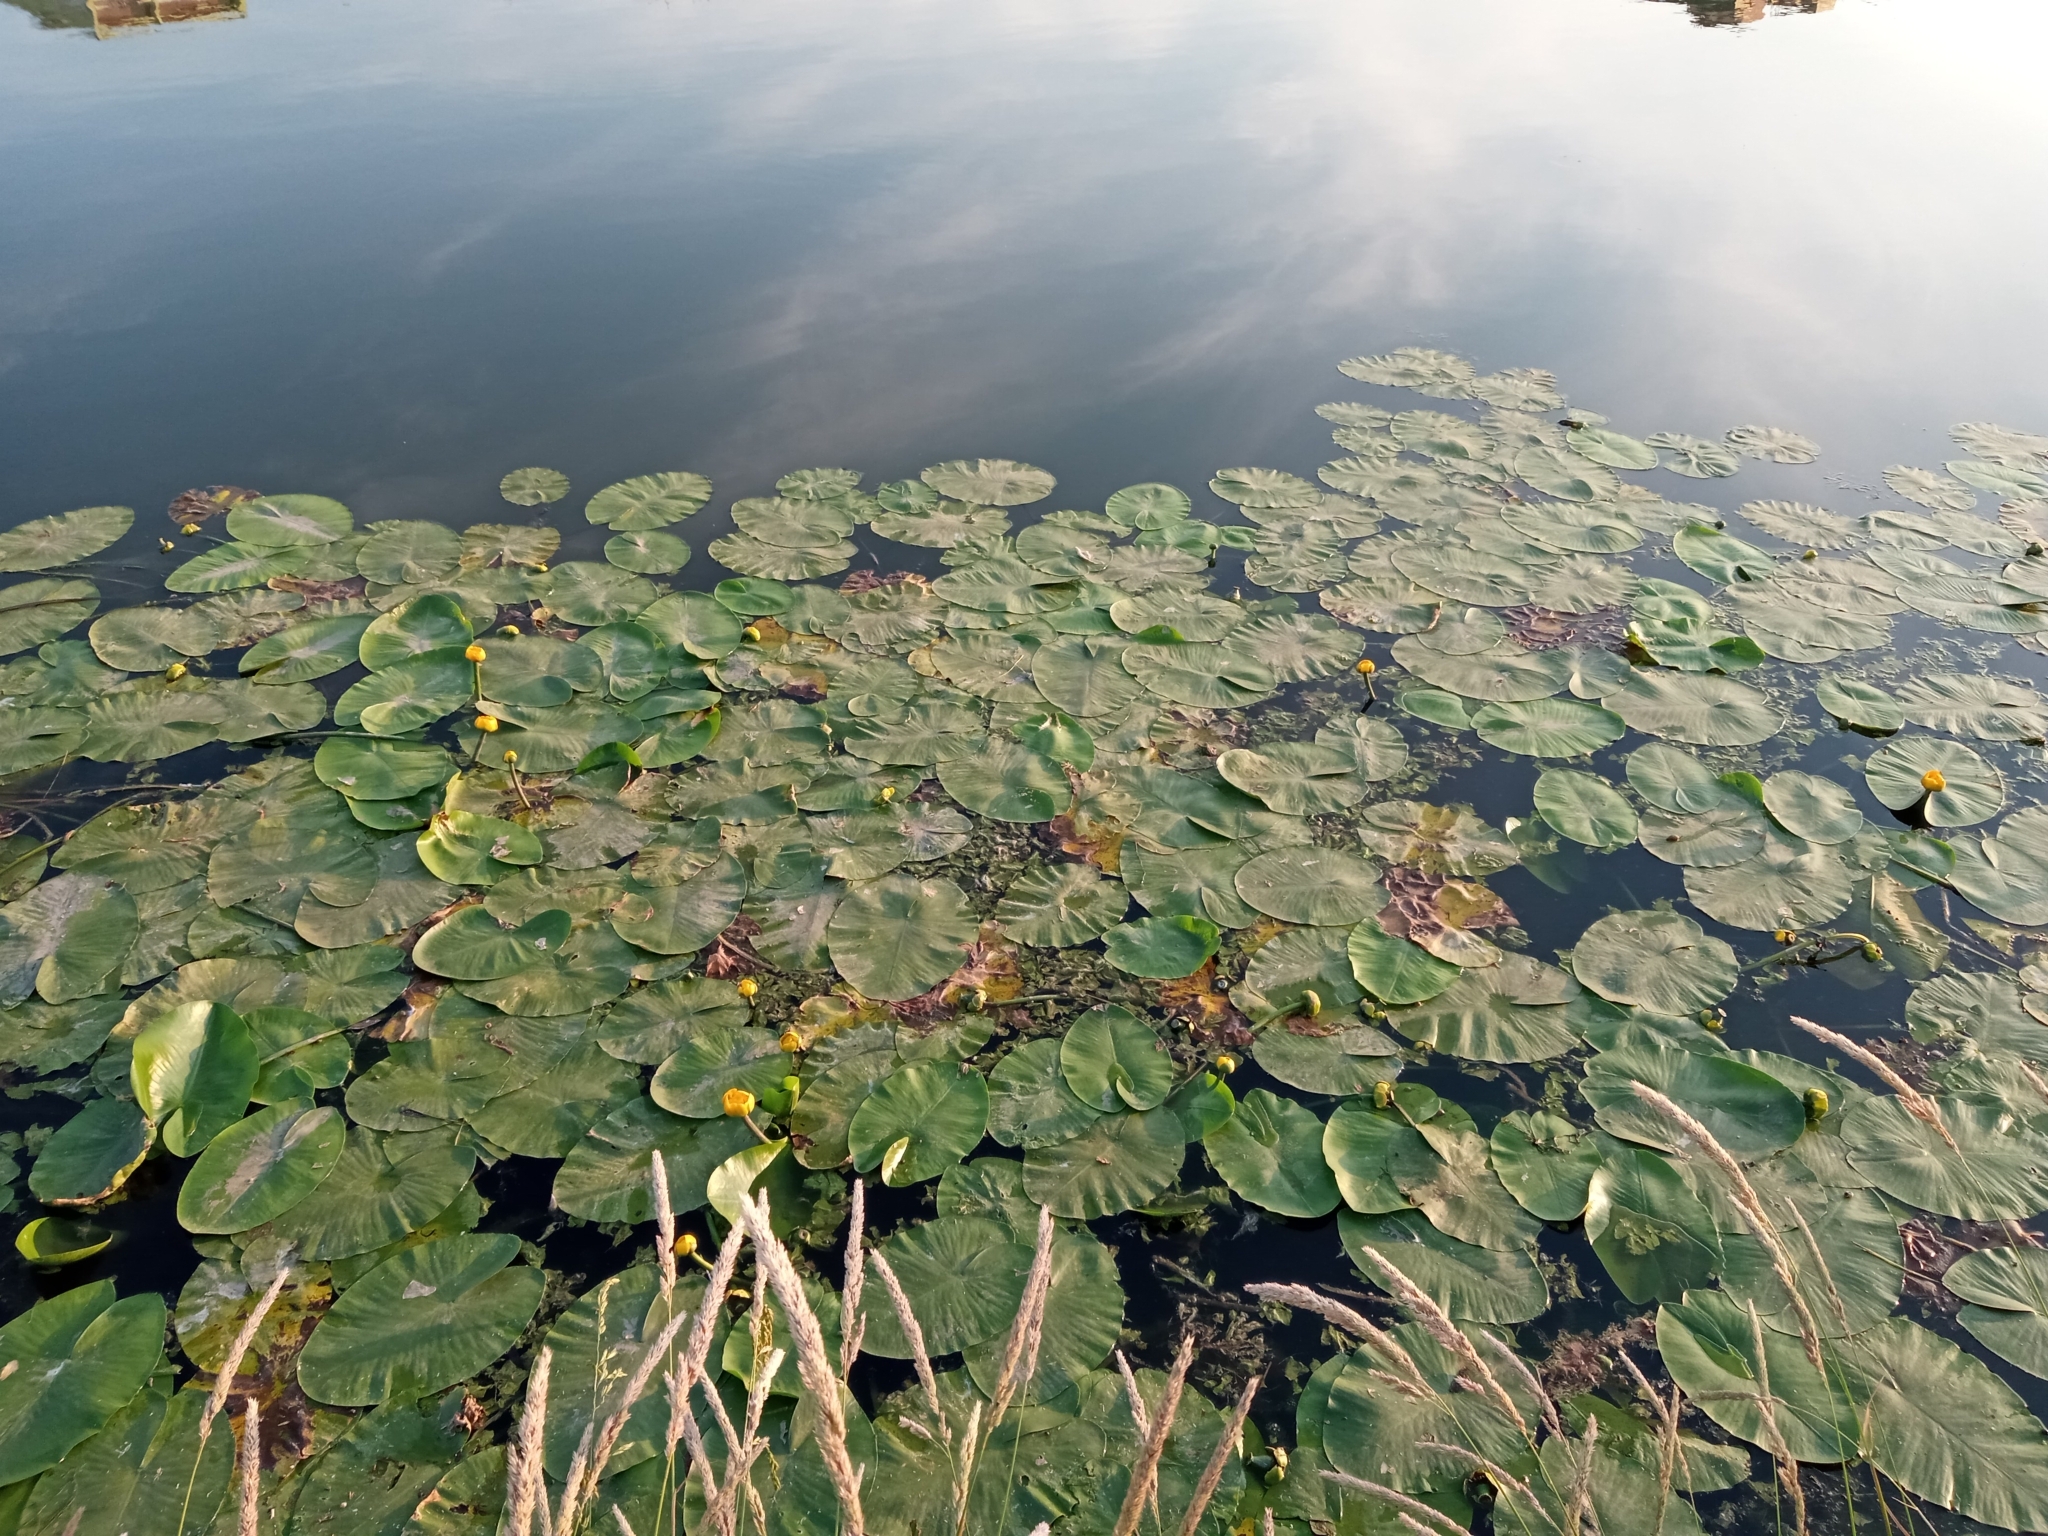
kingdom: Plantae
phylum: Tracheophyta
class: Magnoliopsida
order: Nymphaeales
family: Nymphaeaceae
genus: Nuphar
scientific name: Nuphar lutea
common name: Yellow water-lily
